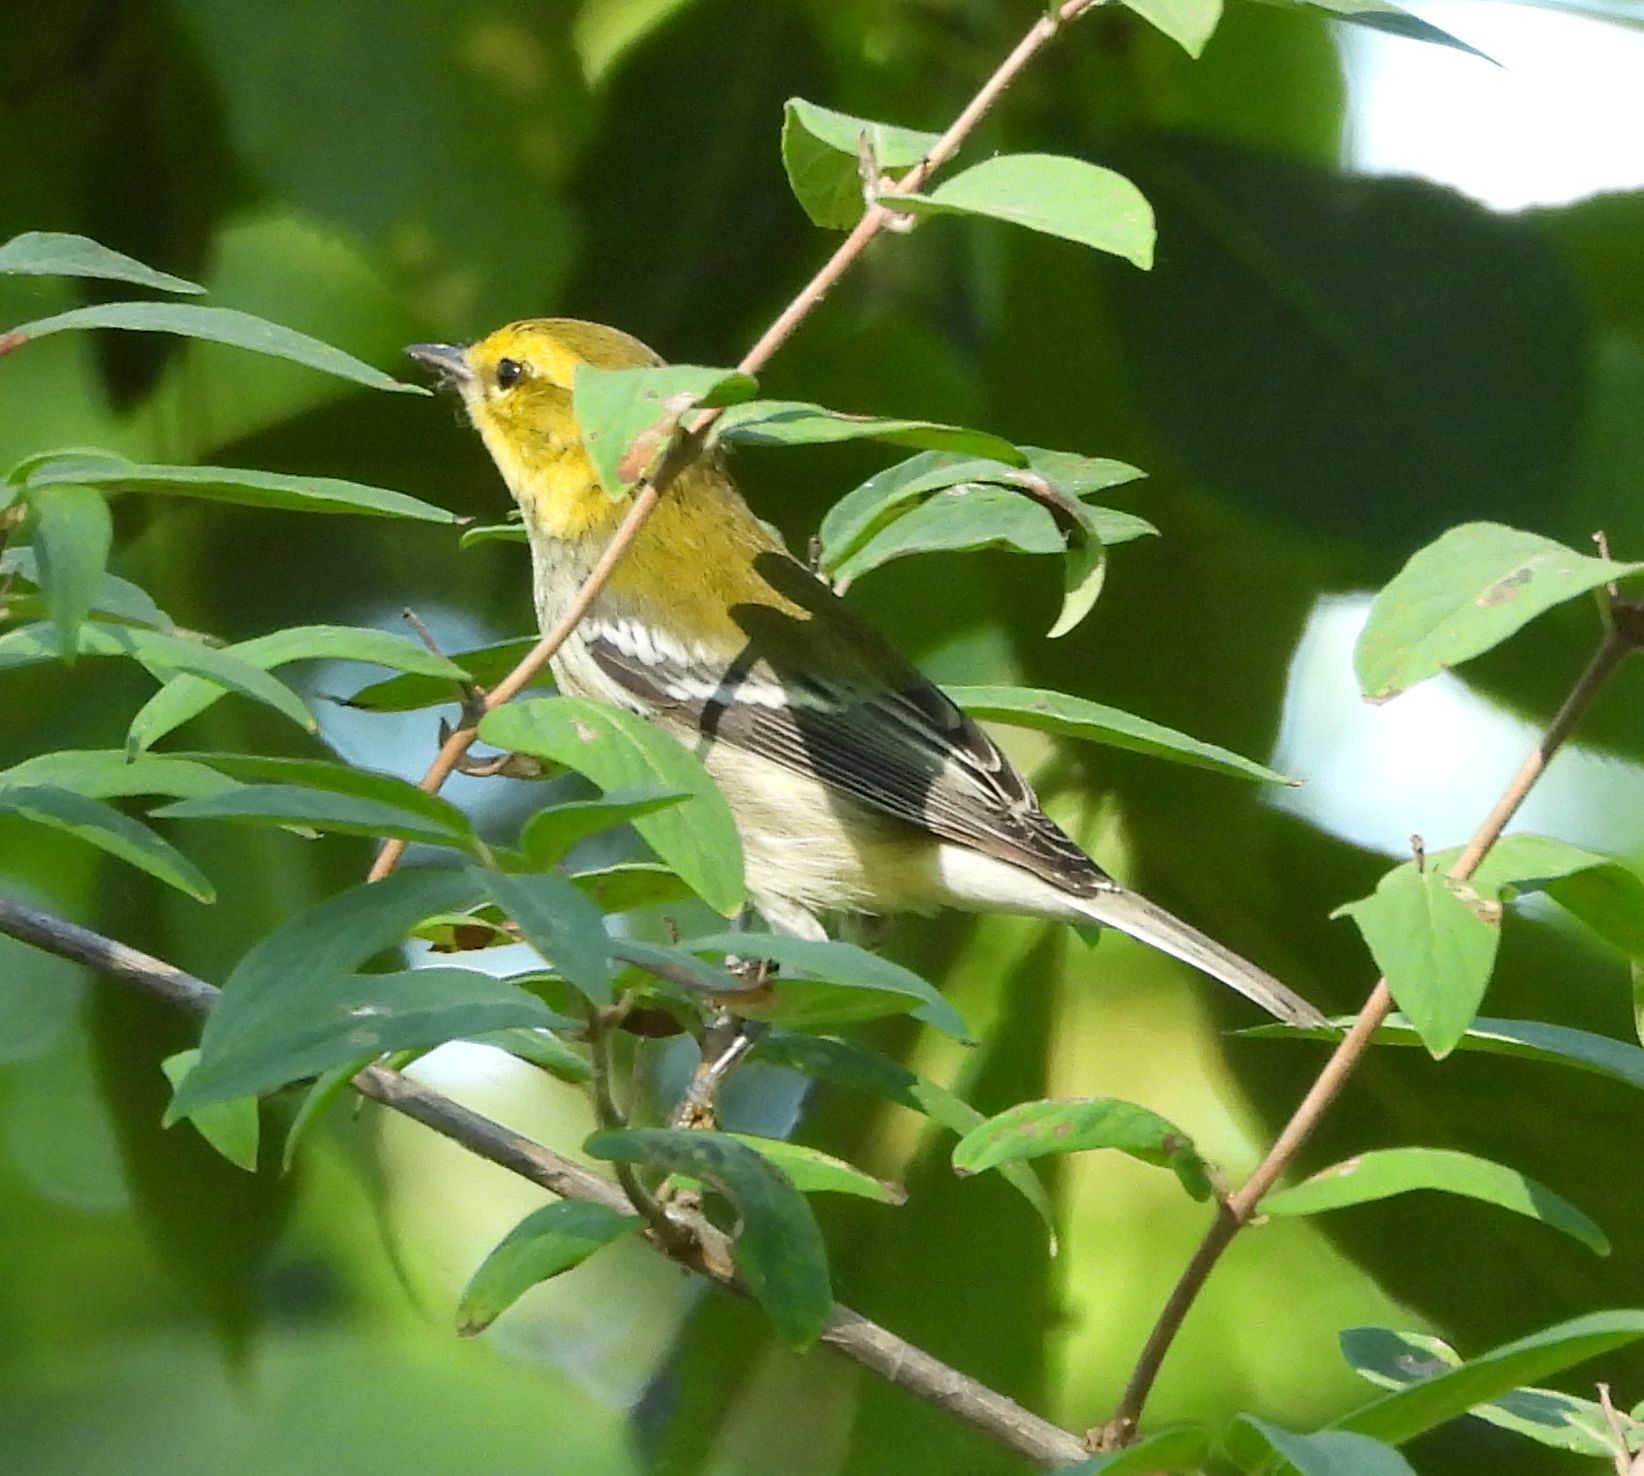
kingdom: Animalia
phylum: Chordata
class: Aves
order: Passeriformes
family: Parulidae
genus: Setophaga
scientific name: Setophaga virens
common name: Black-throated green warbler
